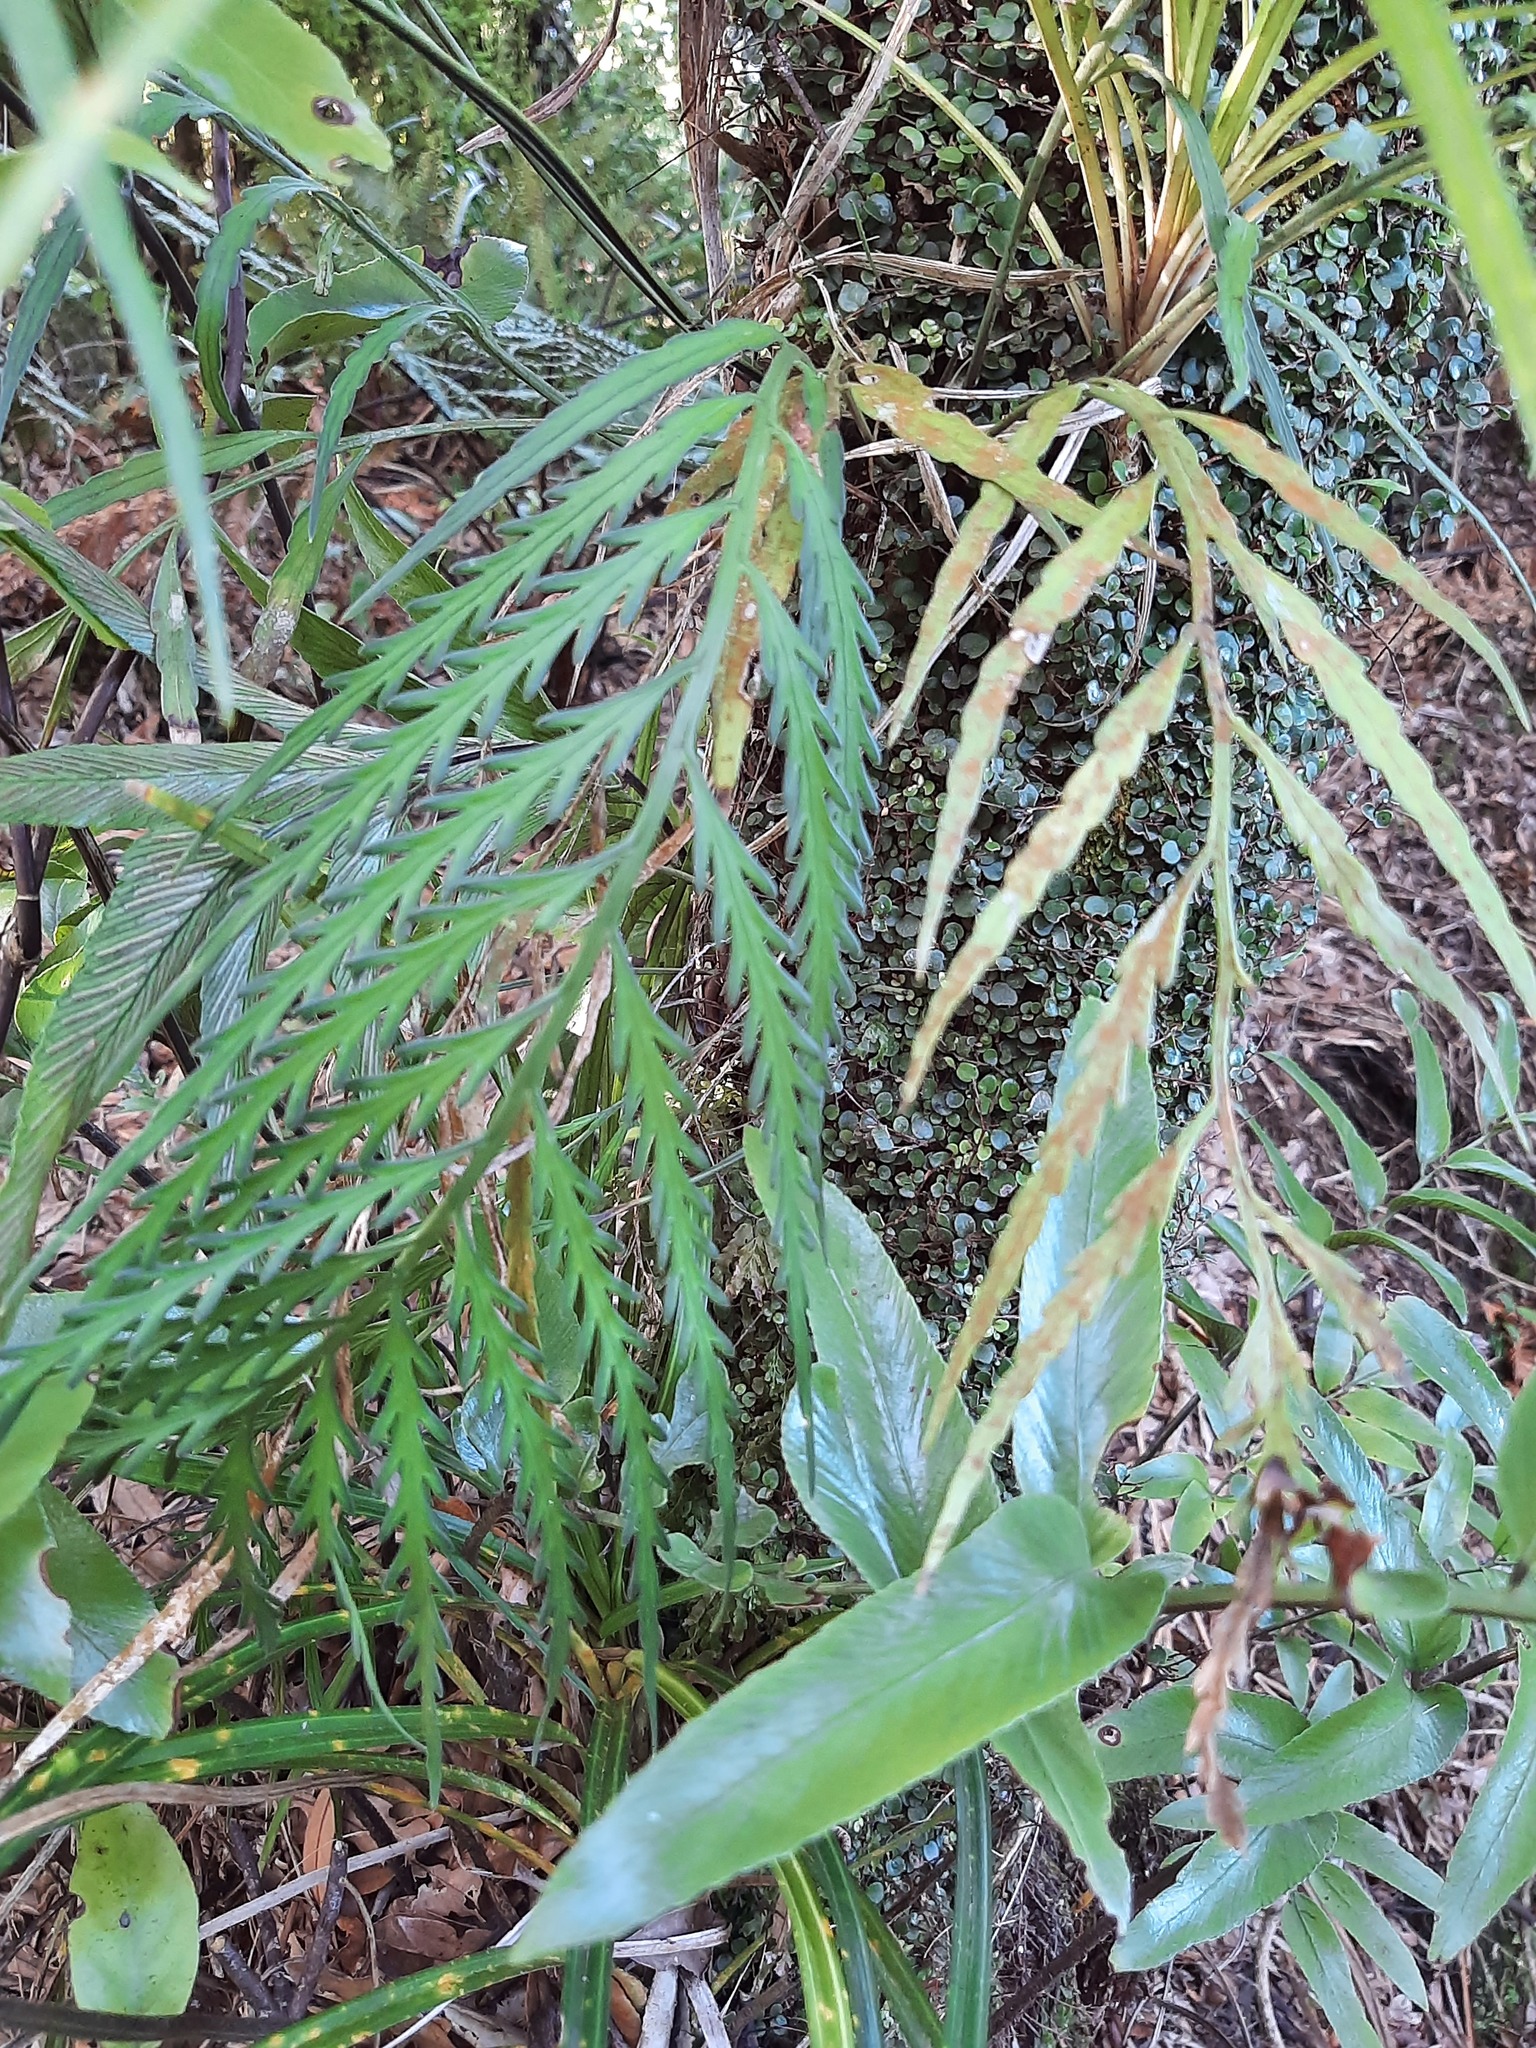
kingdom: Plantae
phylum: Tracheophyta
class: Polypodiopsida
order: Polypodiales
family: Aspleniaceae
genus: Asplenium
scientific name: Asplenium flaccidum
